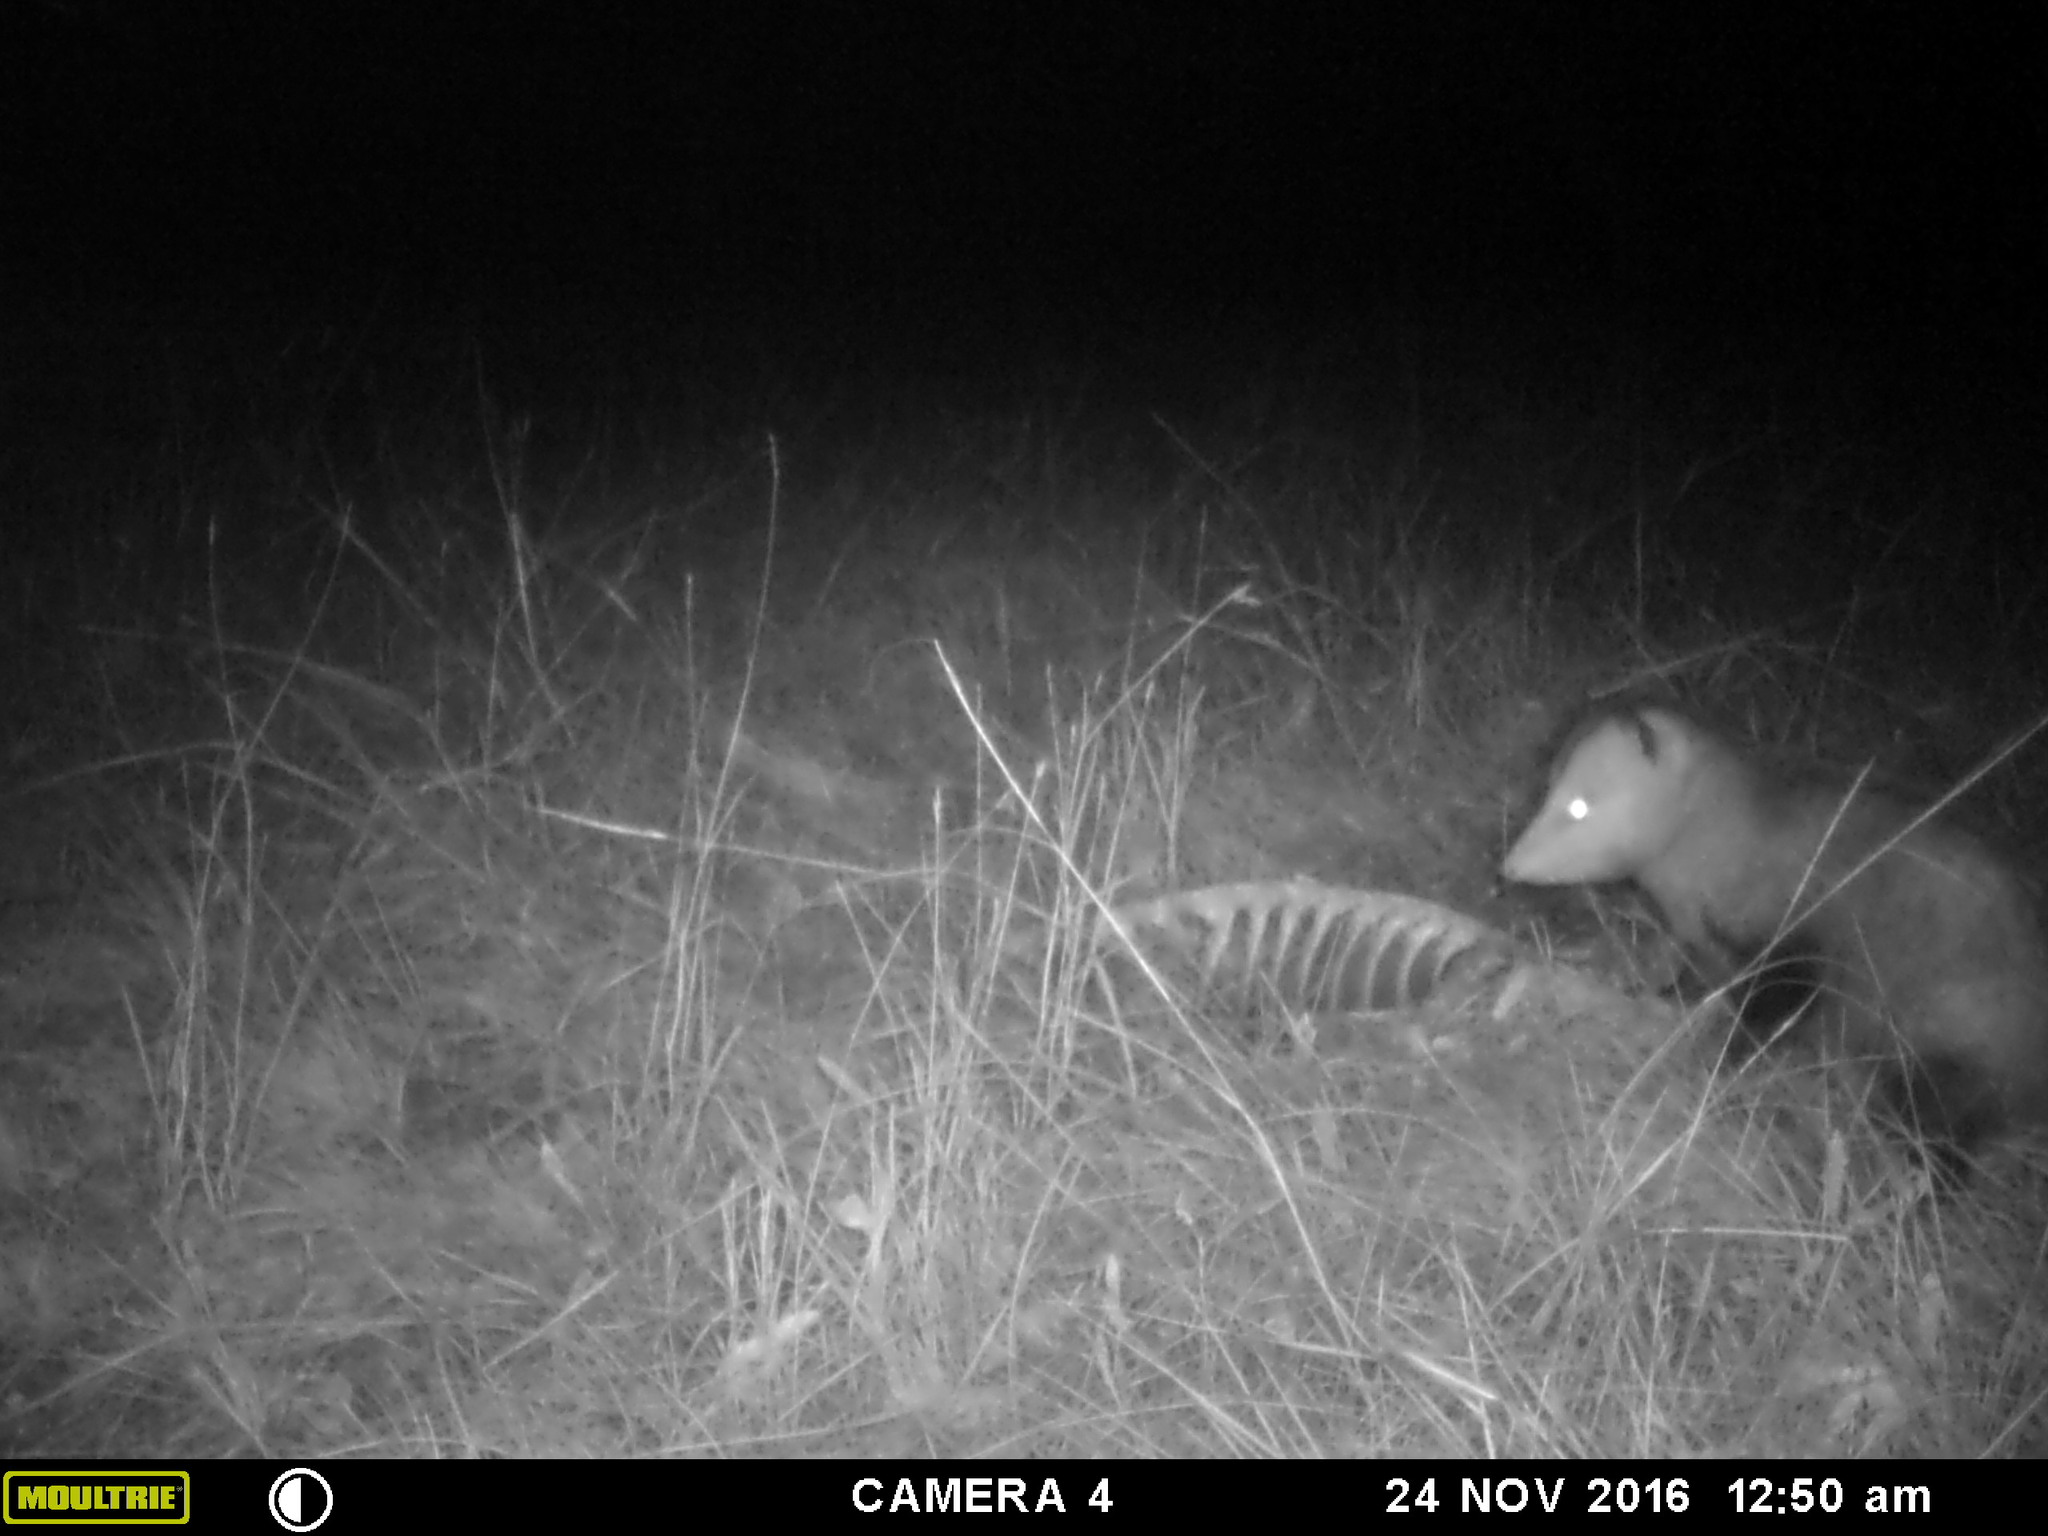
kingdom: Animalia
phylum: Chordata
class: Mammalia
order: Didelphimorphia
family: Didelphidae
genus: Didelphis
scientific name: Didelphis virginiana
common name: Virginia opossum
